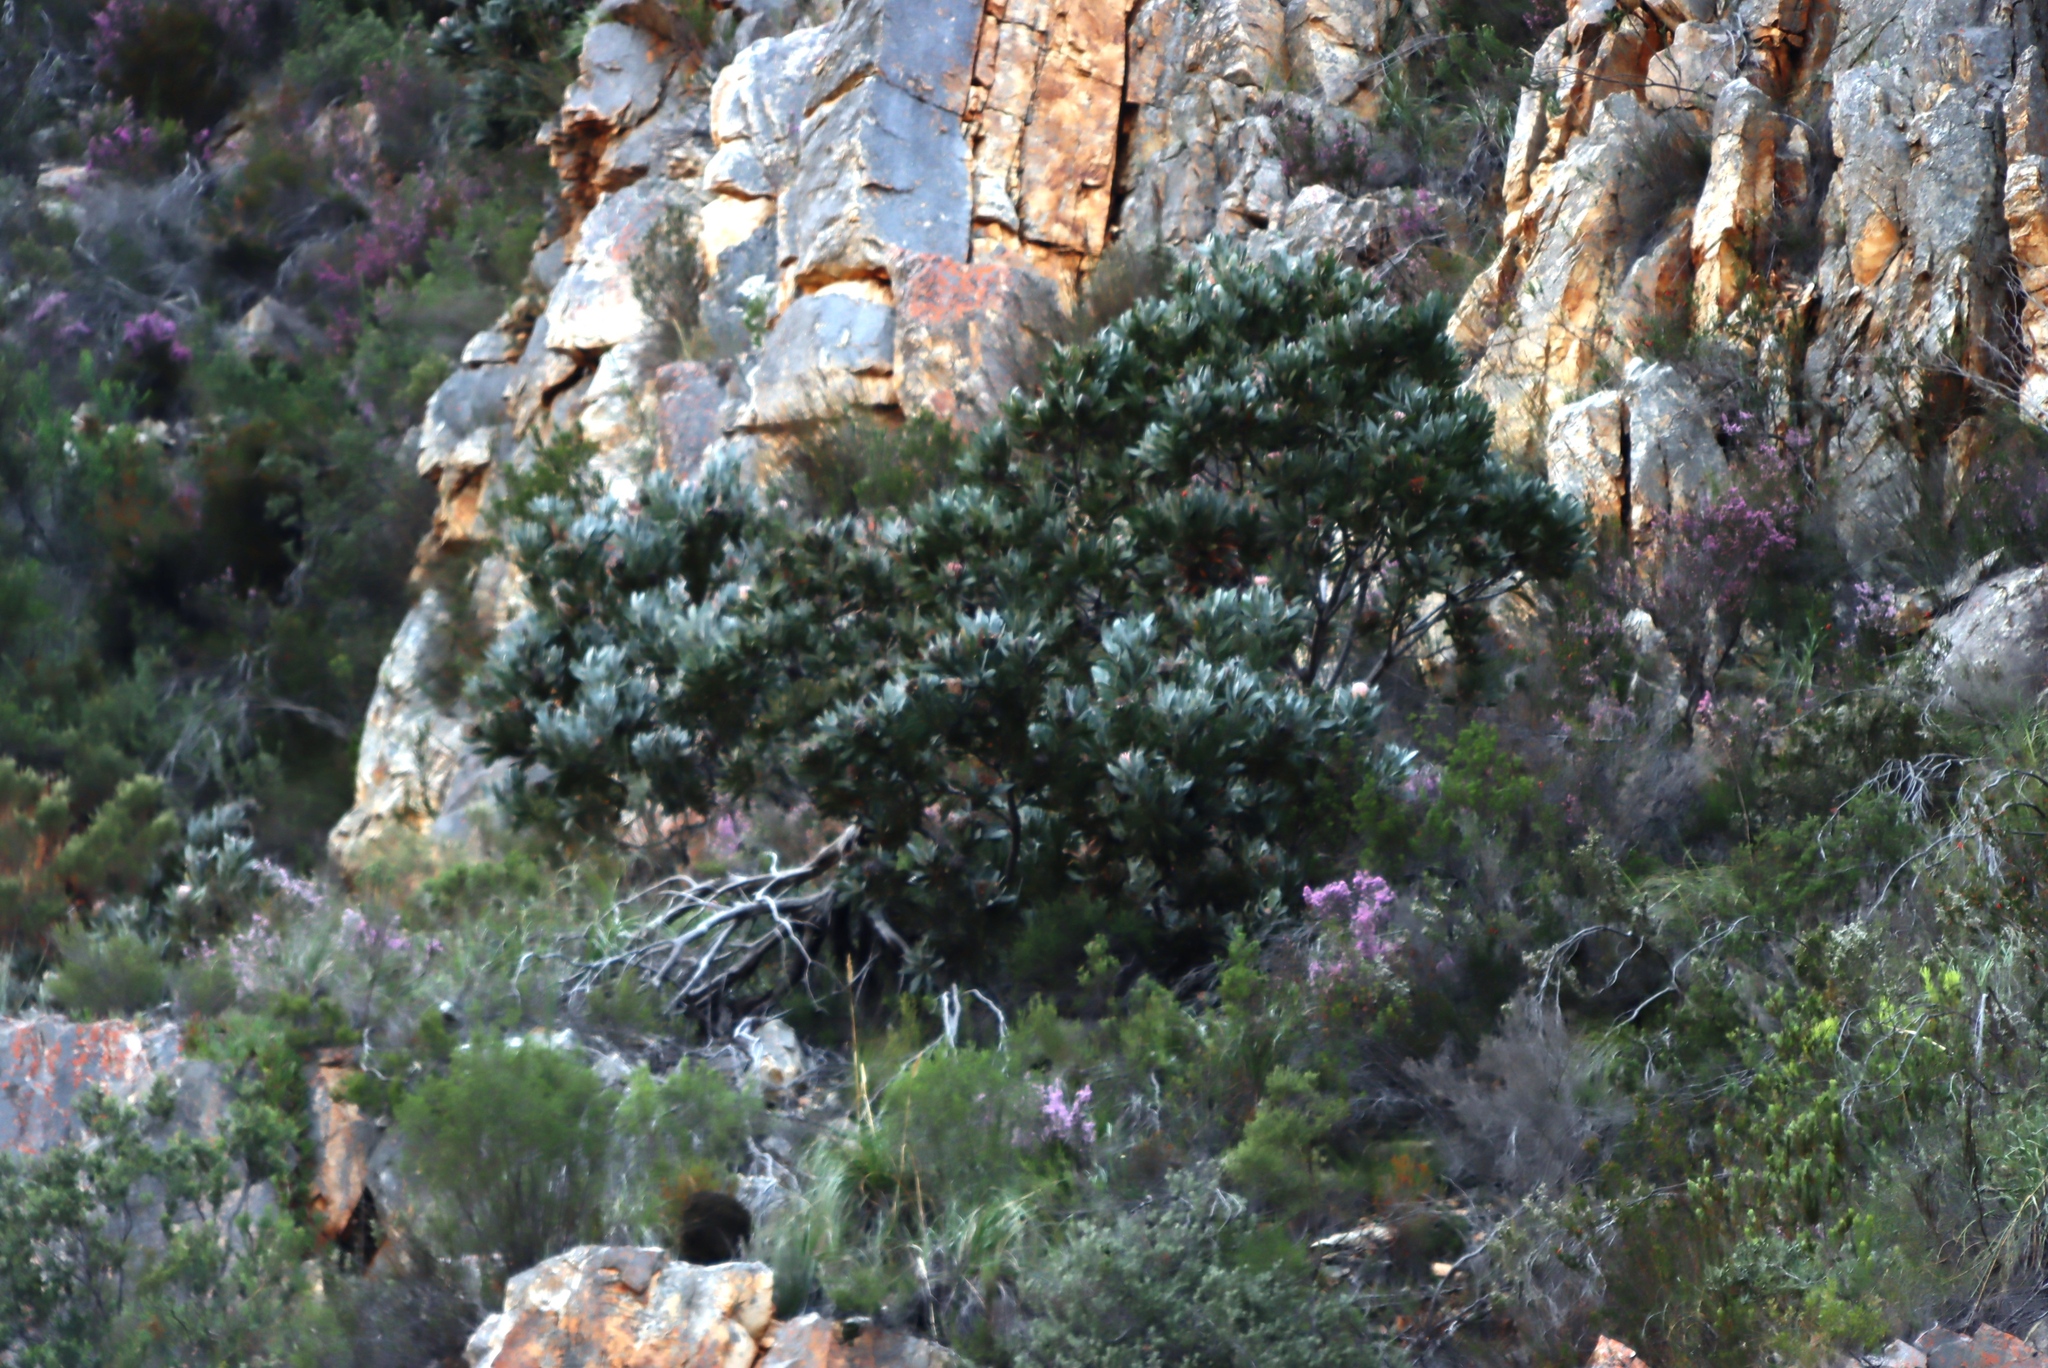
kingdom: Plantae
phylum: Tracheophyta
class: Magnoliopsida
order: Proteales
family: Proteaceae
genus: Protea
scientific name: Protea lorifolia
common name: Strap-leaved protea
